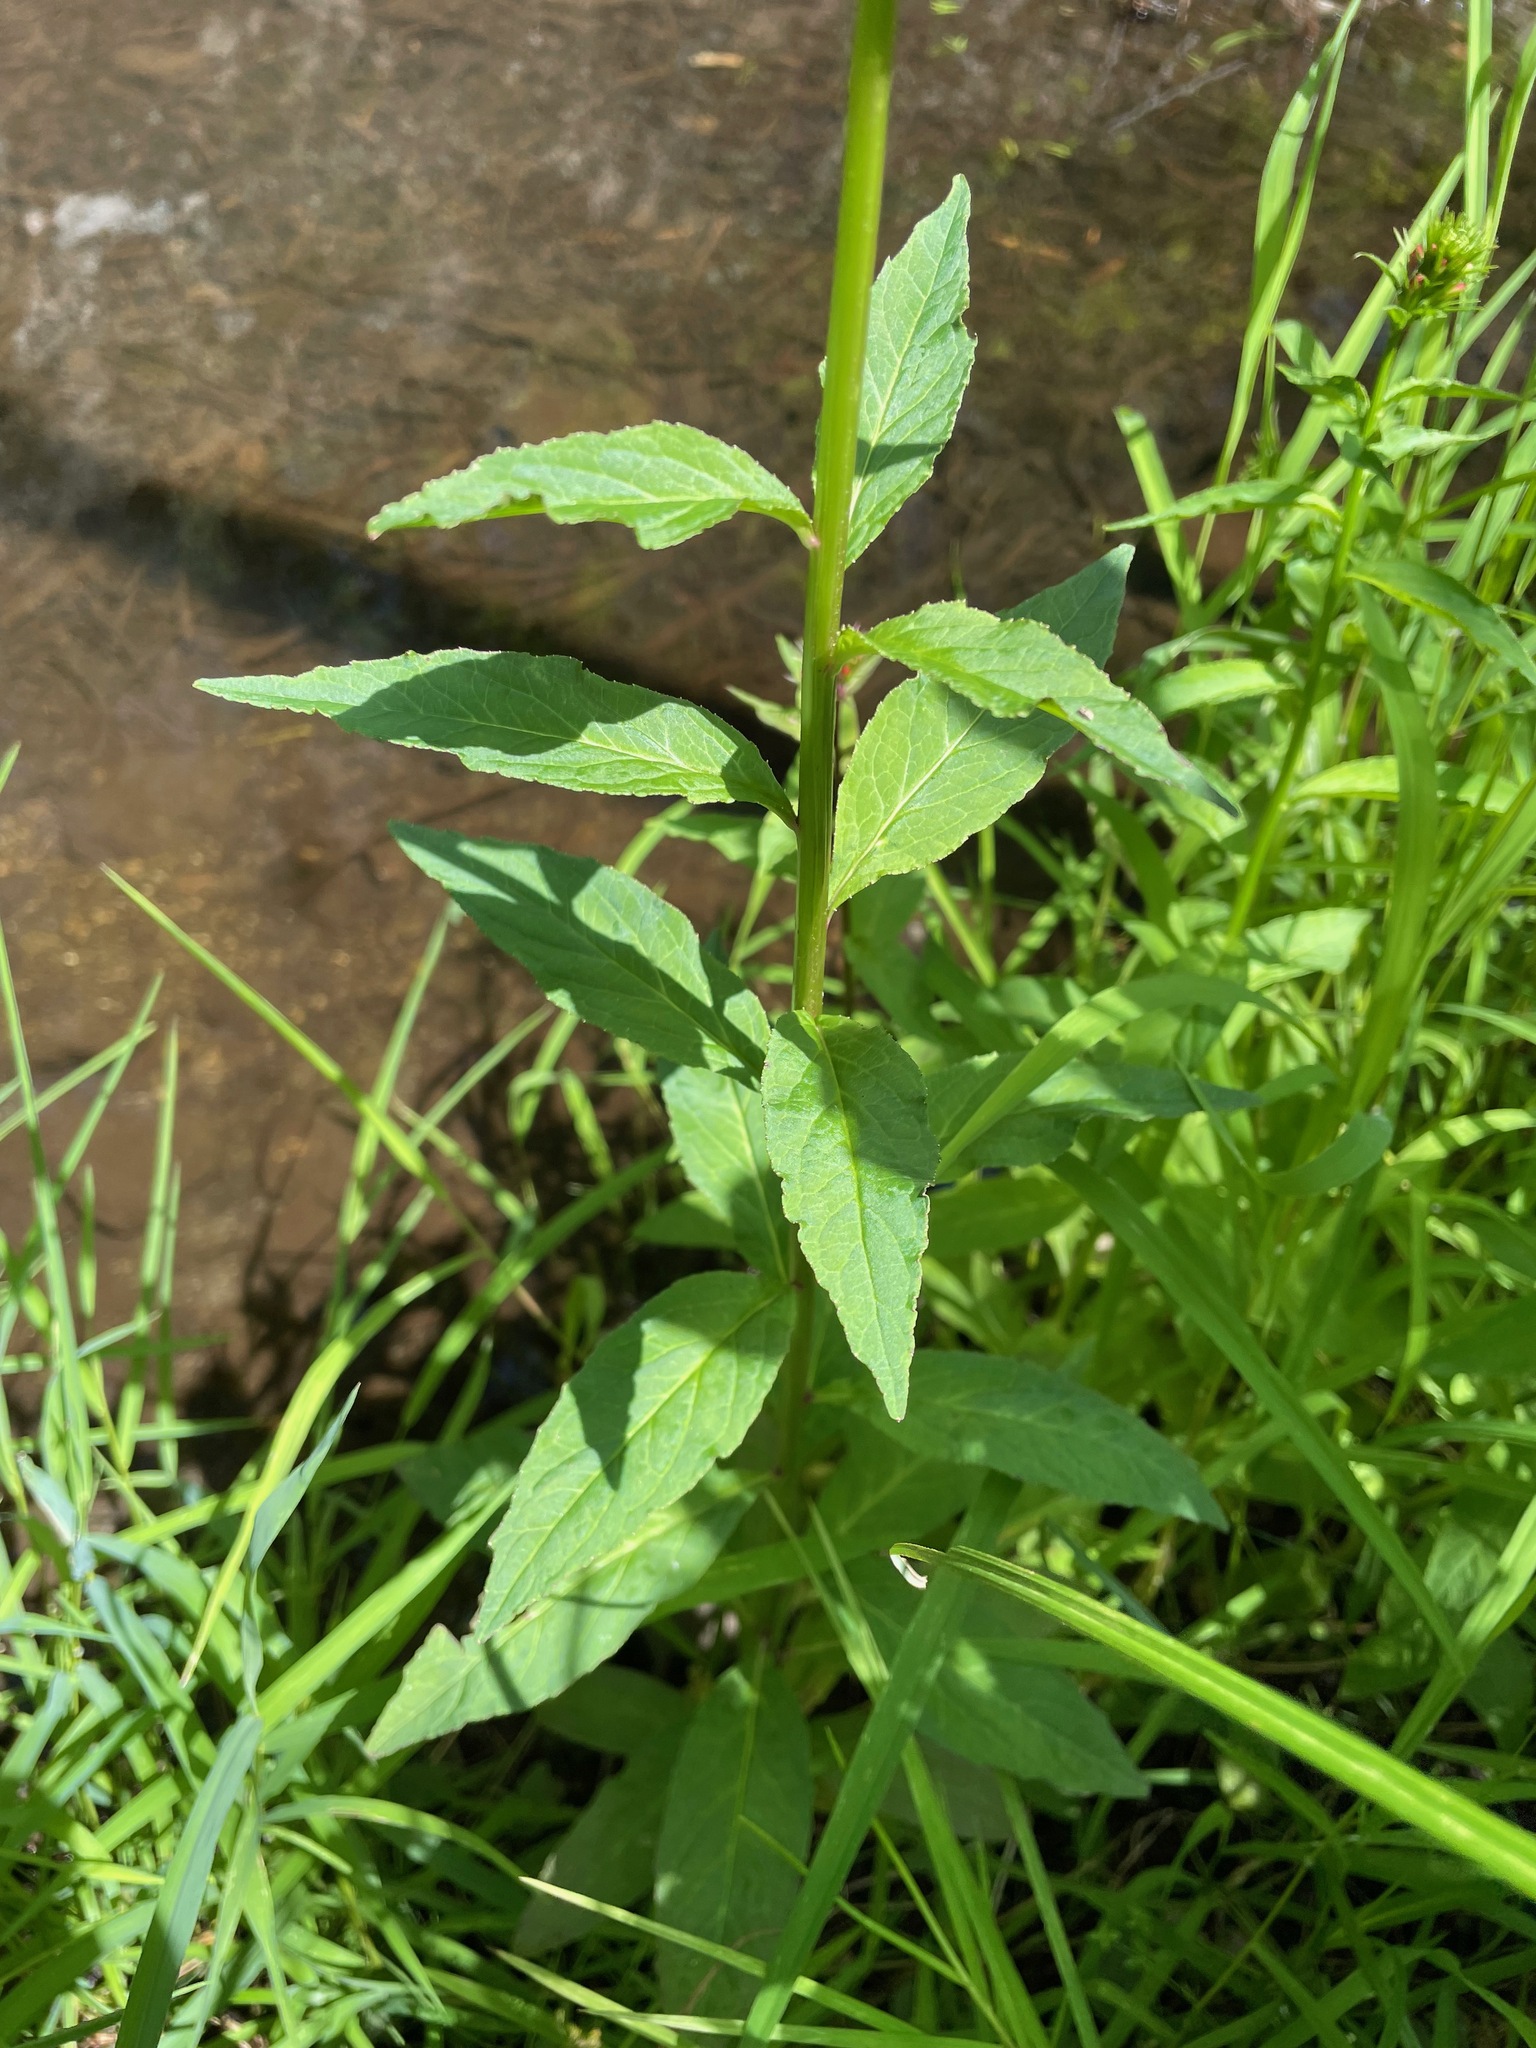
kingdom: Plantae
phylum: Tracheophyta
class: Magnoliopsida
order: Asterales
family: Campanulaceae
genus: Lobelia
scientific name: Lobelia cardinalis
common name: Cardinal flower
